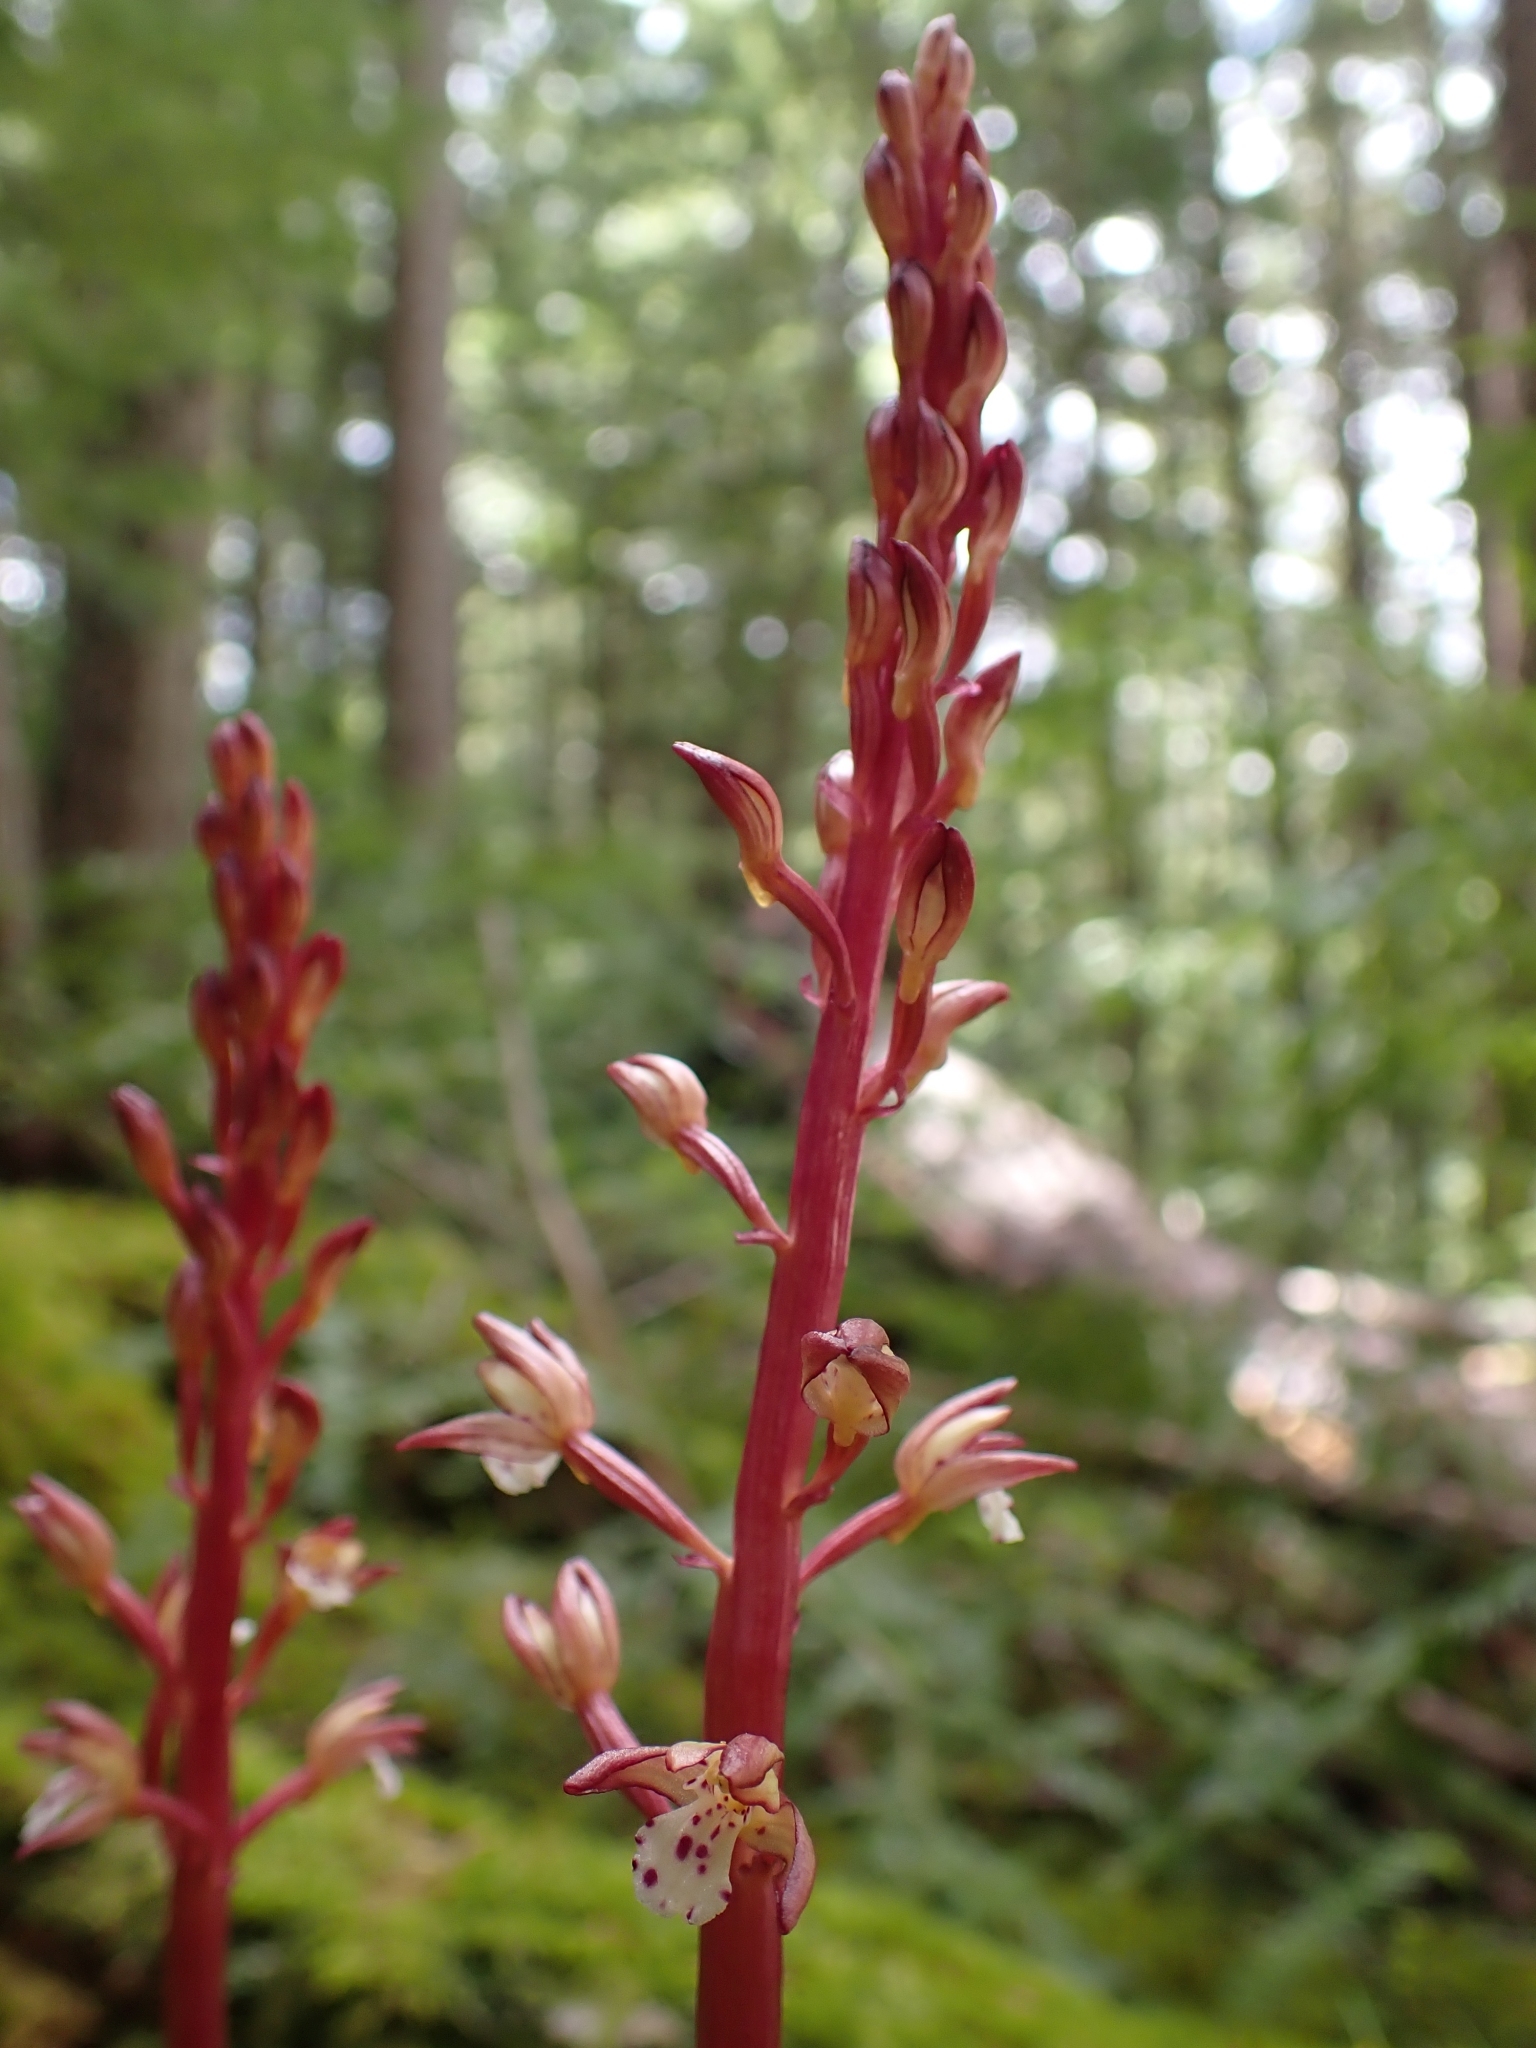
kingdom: Plantae
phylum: Tracheophyta
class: Liliopsida
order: Asparagales
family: Orchidaceae
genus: Corallorhiza
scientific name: Corallorhiza maculata
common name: Spotted coralroot
